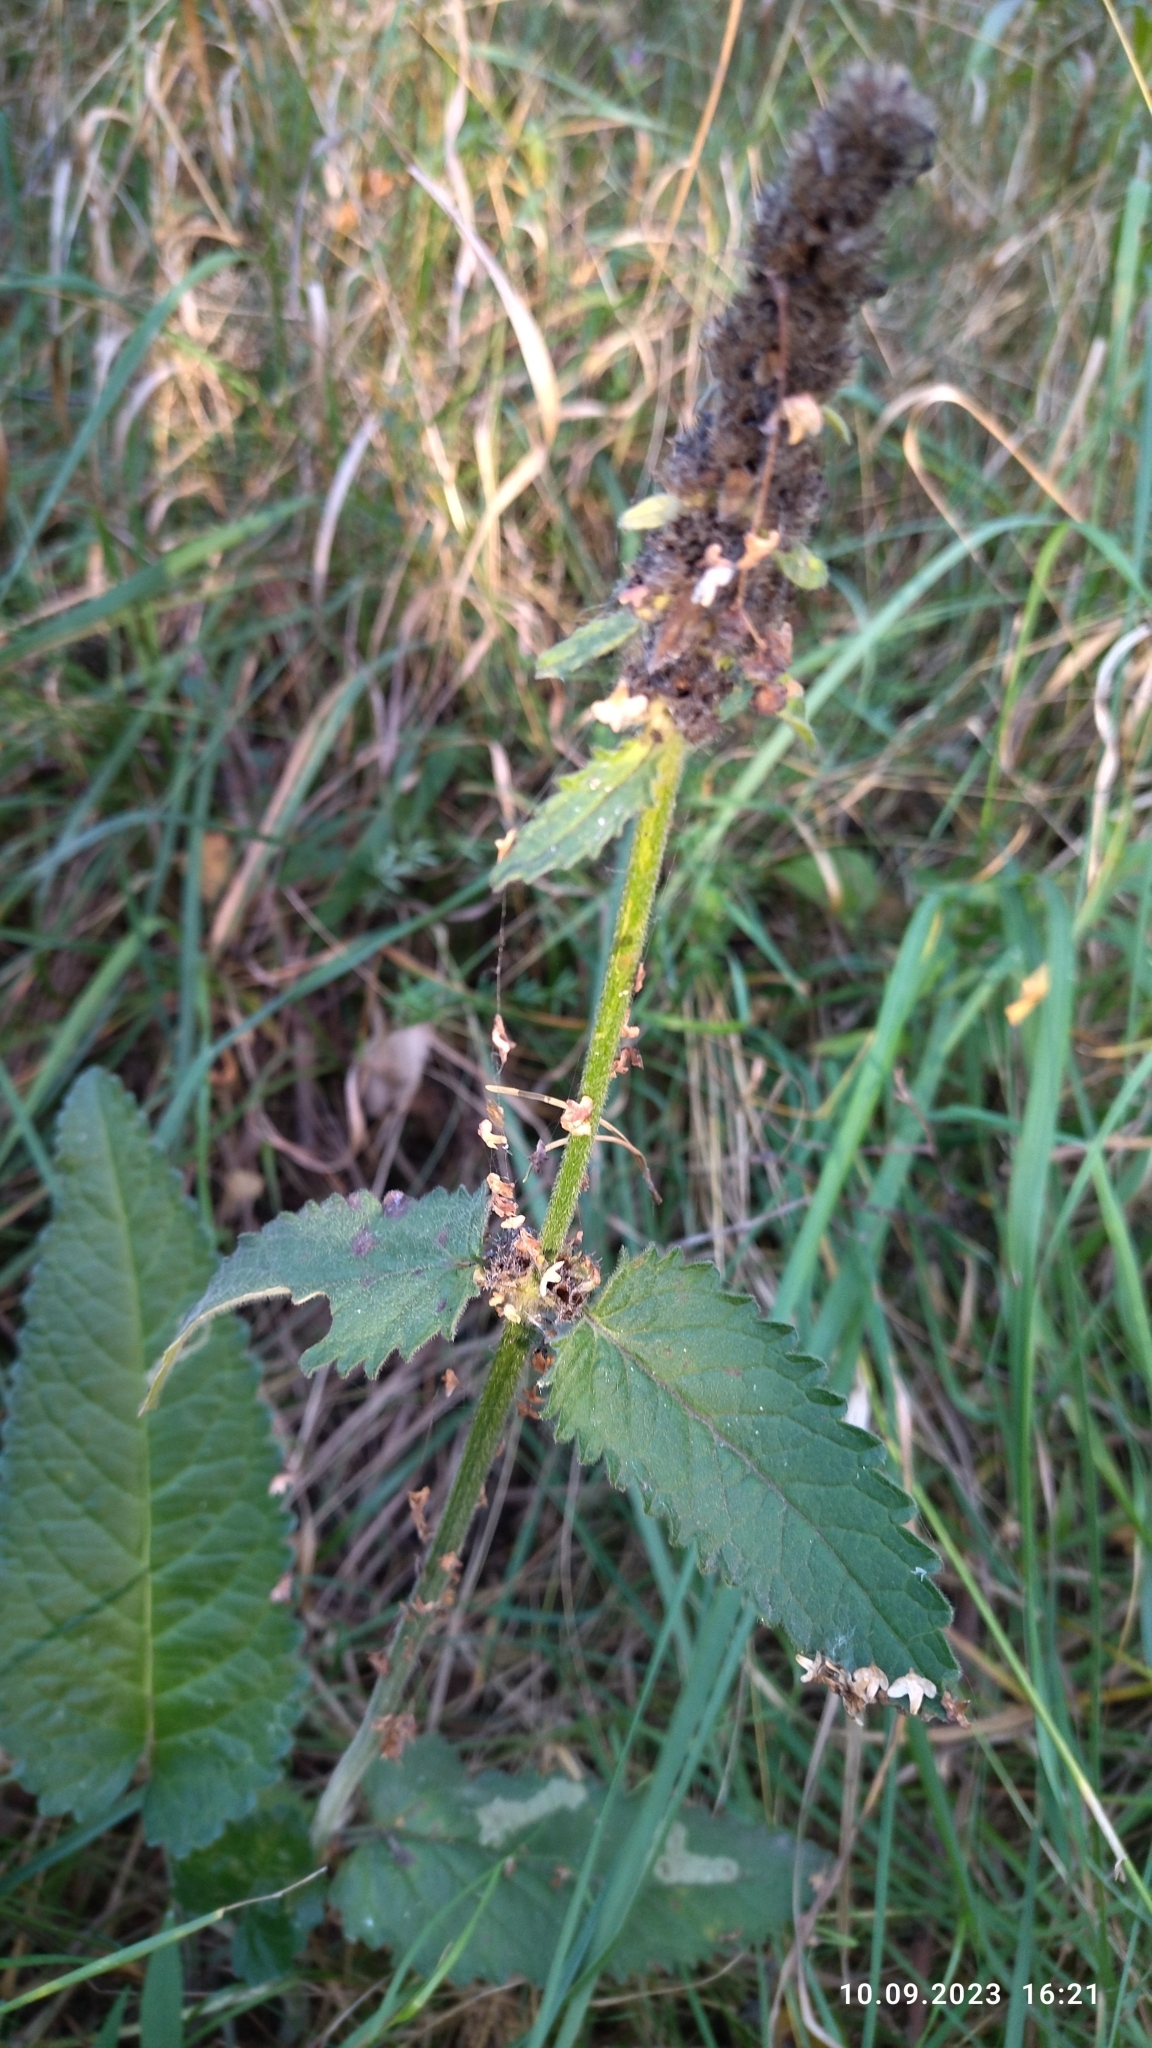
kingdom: Plantae
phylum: Tracheophyta
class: Magnoliopsida
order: Lamiales
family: Lamiaceae
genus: Betonica
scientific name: Betonica officinalis
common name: Bishop's-wort
